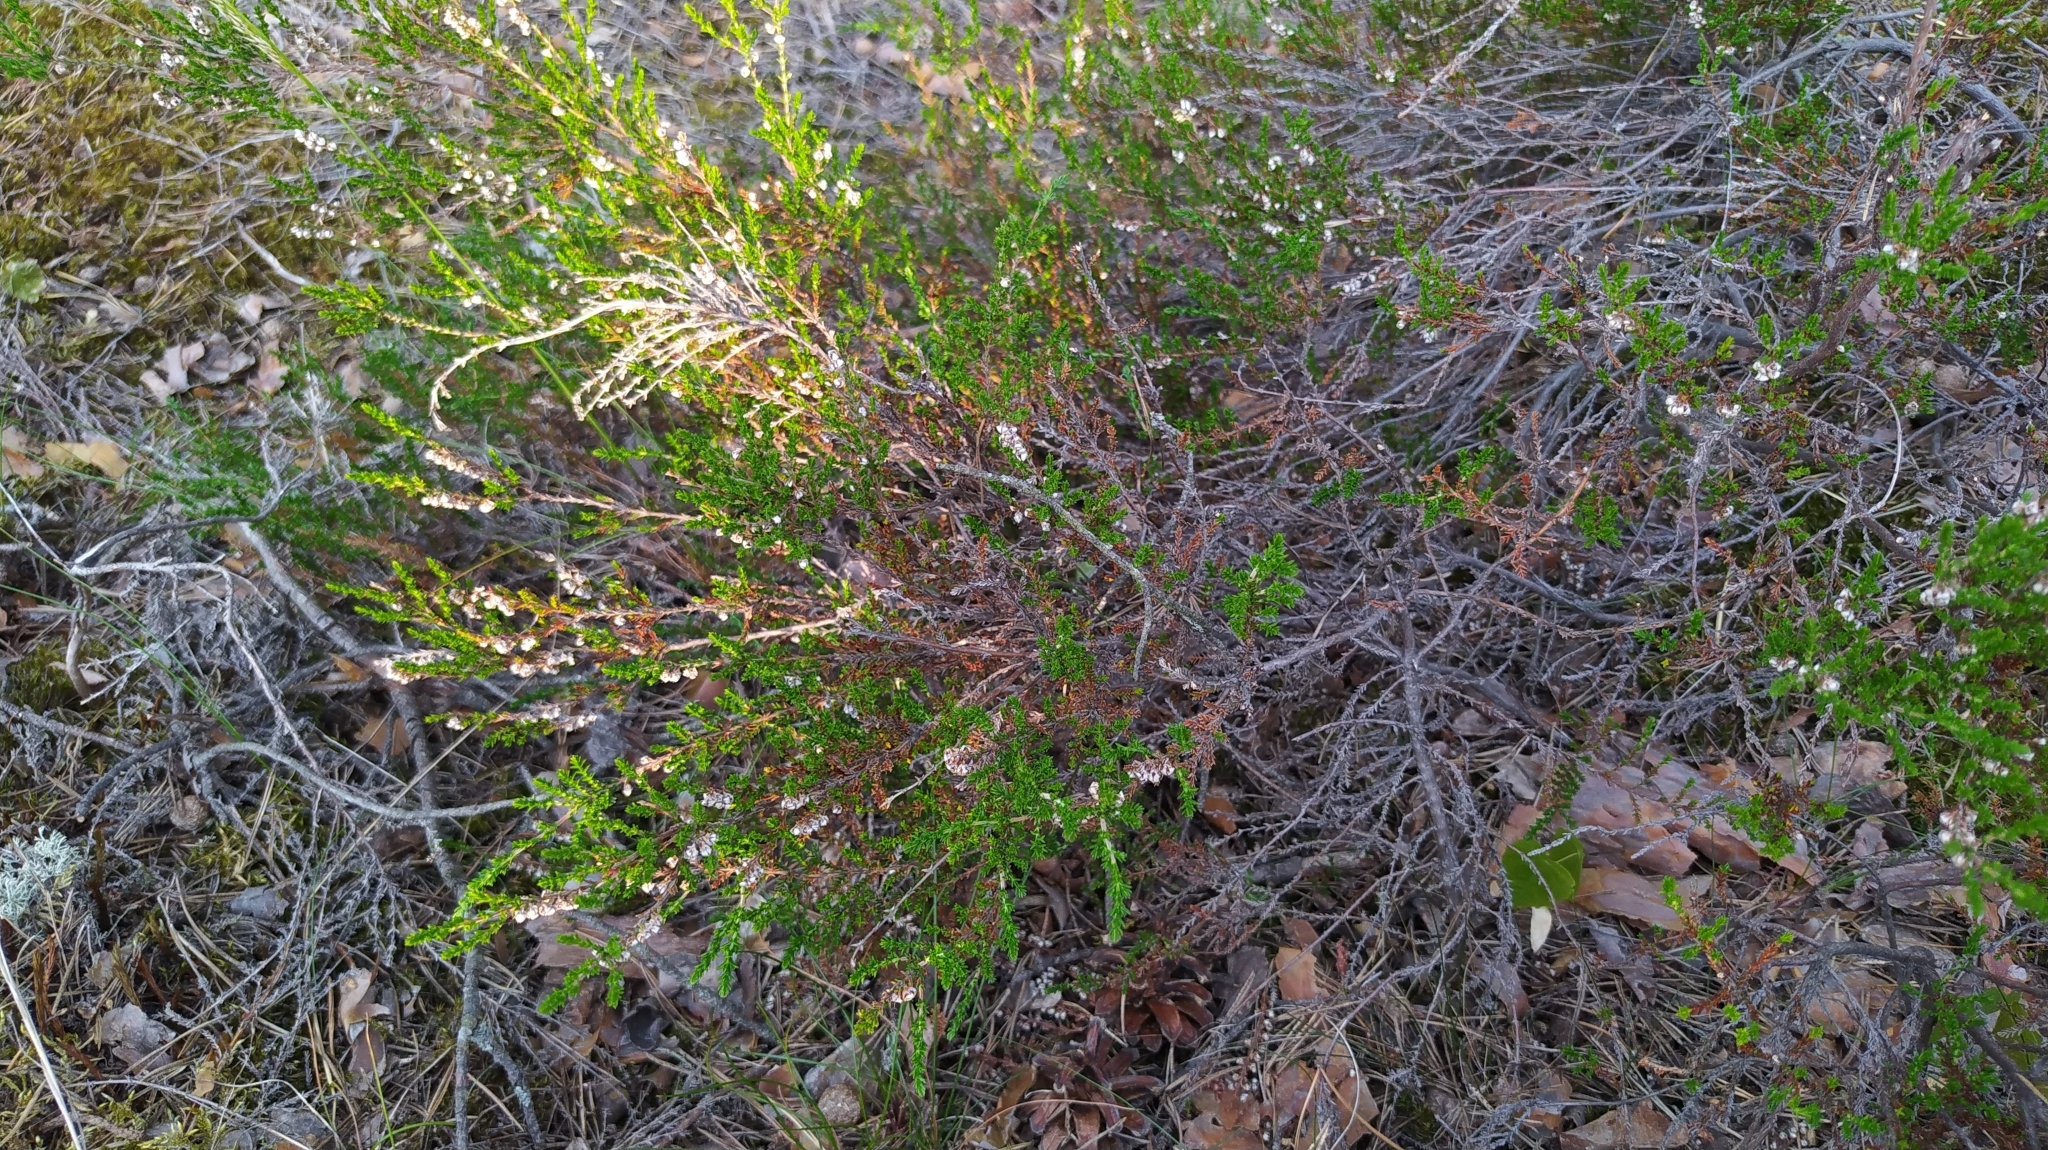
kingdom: Plantae
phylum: Tracheophyta
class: Magnoliopsida
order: Ericales
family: Ericaceae
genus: Calluna
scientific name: Calluna vulgaris
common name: Heather
